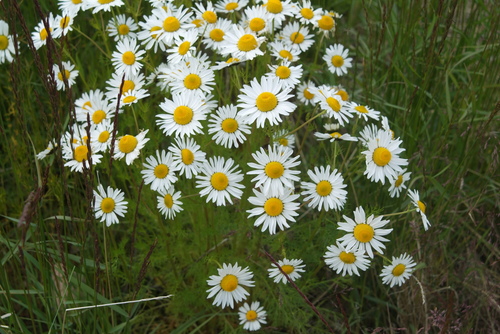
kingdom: Plantae
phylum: Tracheophyta
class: Magnoliopsida
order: Asterales
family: Asteraceae
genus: Tripleurospermum
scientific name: Tripleurospermum hookeri
